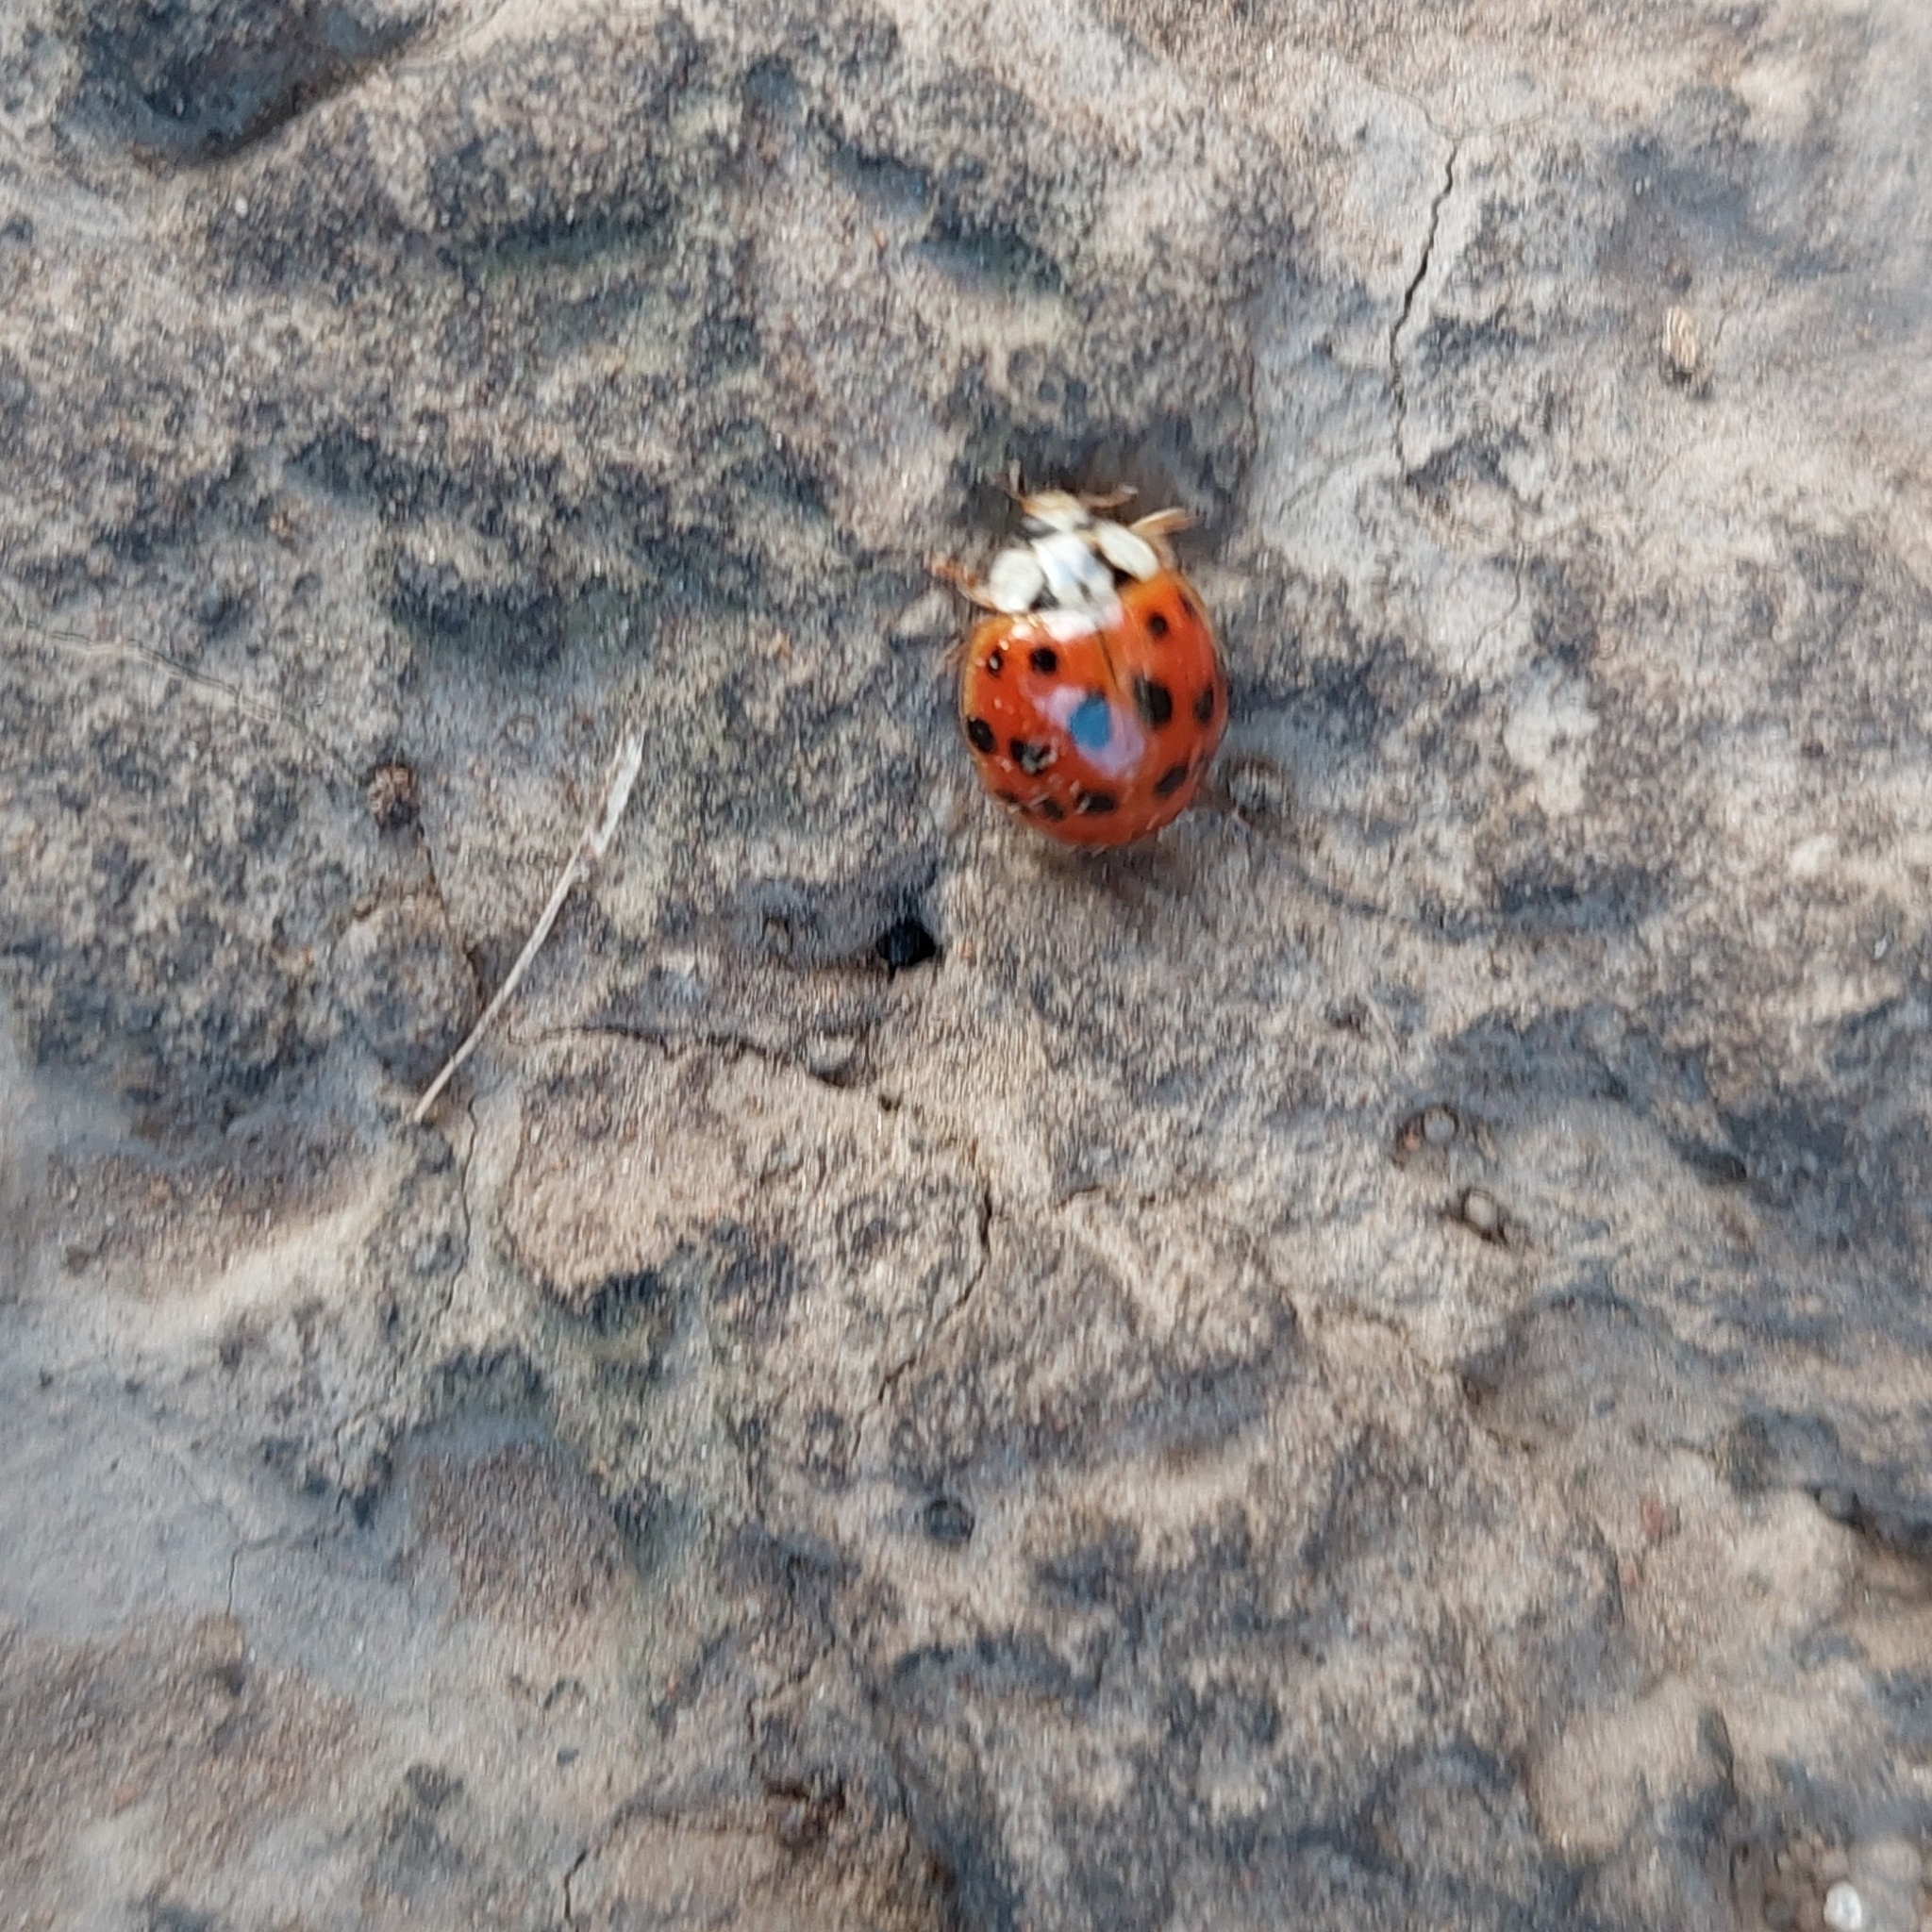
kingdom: Animalia
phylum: Arthropoda
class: Insecta
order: Coleoptera
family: Coccinellidae
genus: Harmonia
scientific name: Harmonia axyridis
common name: Harlequin ladybird
